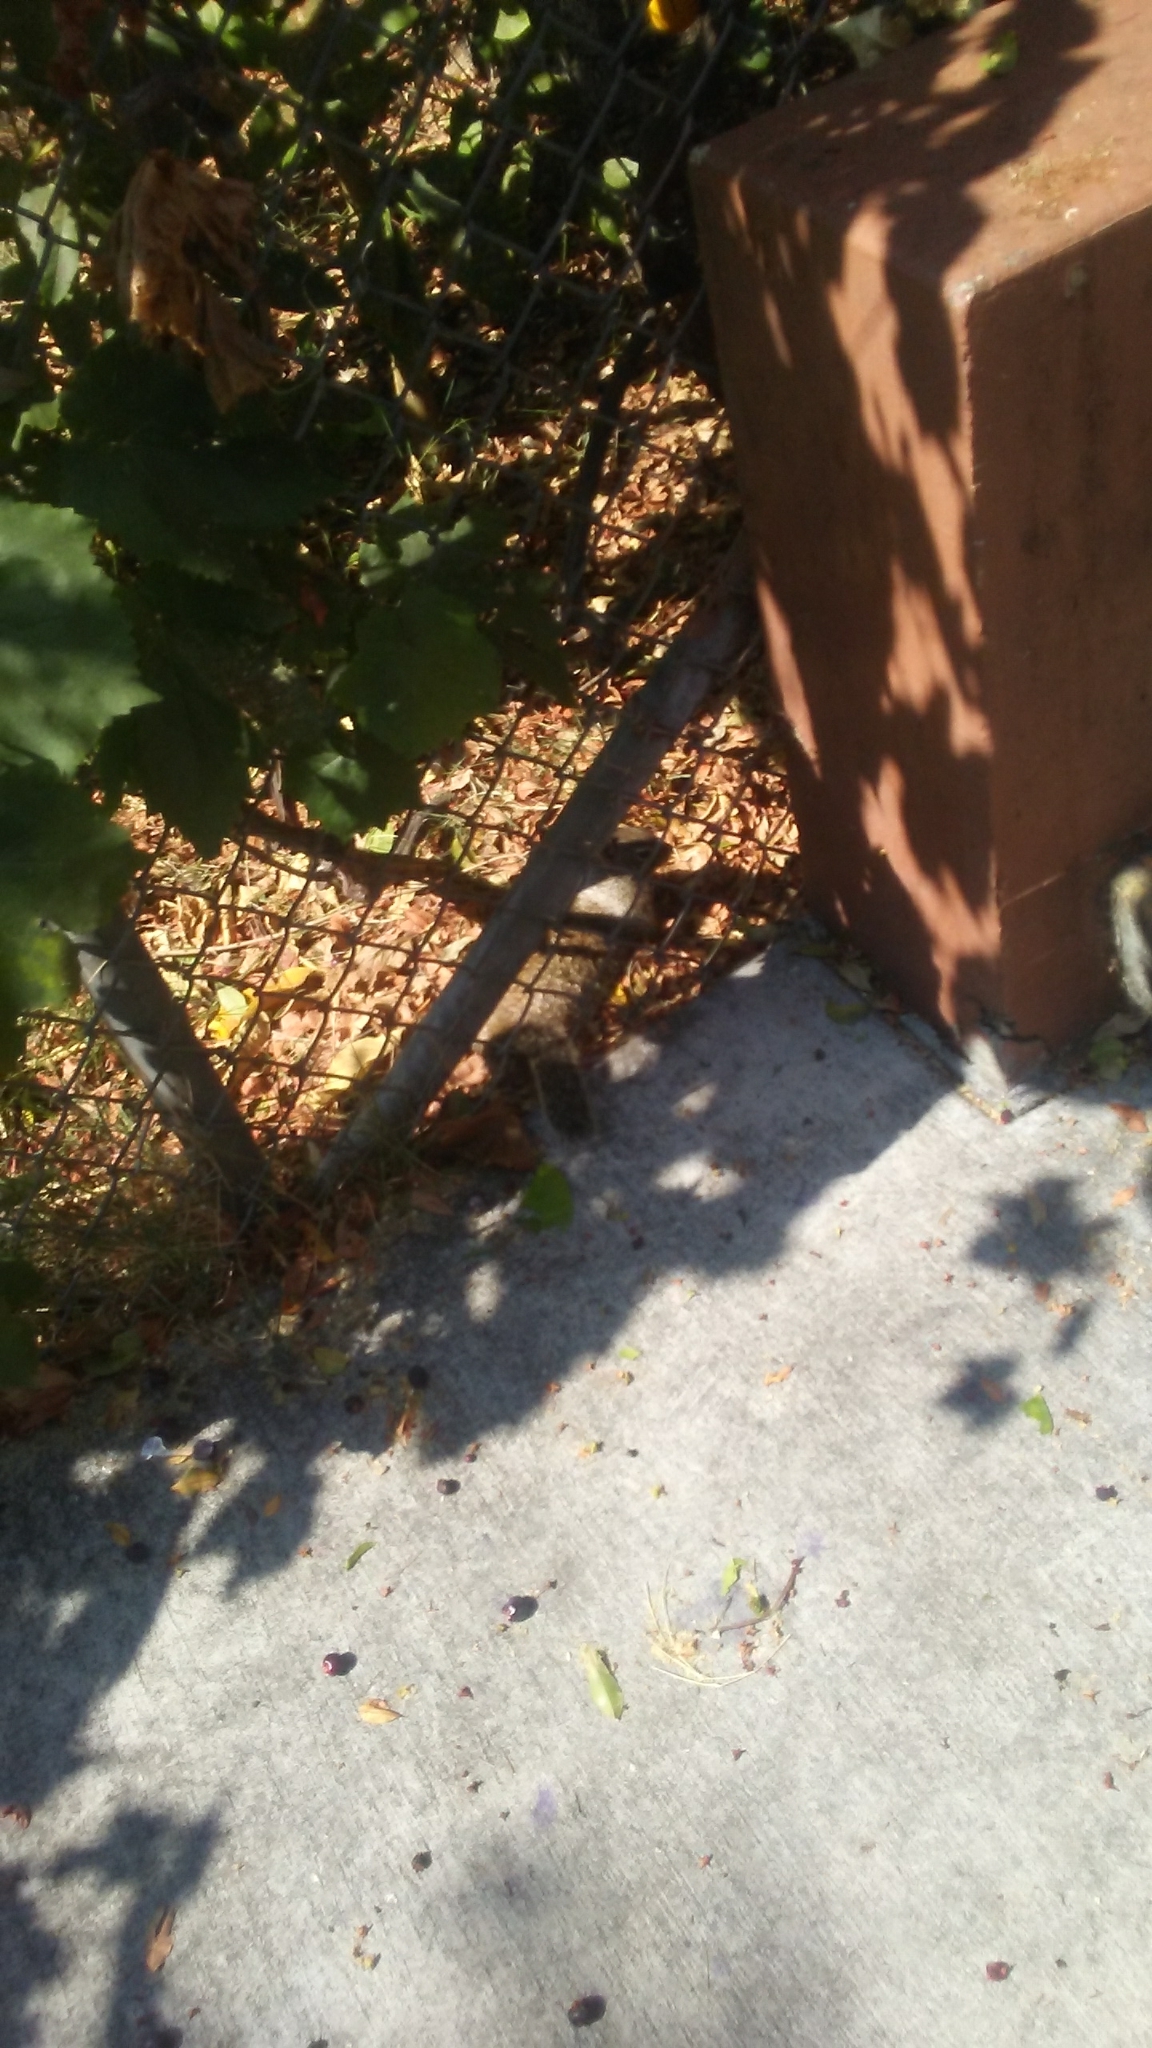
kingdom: Animalia
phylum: Chordata
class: Mammalia
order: Rodentia
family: Sciuridae
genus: Otospermophilus
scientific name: Otospermophilus beecheyi
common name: California ground squirrel
